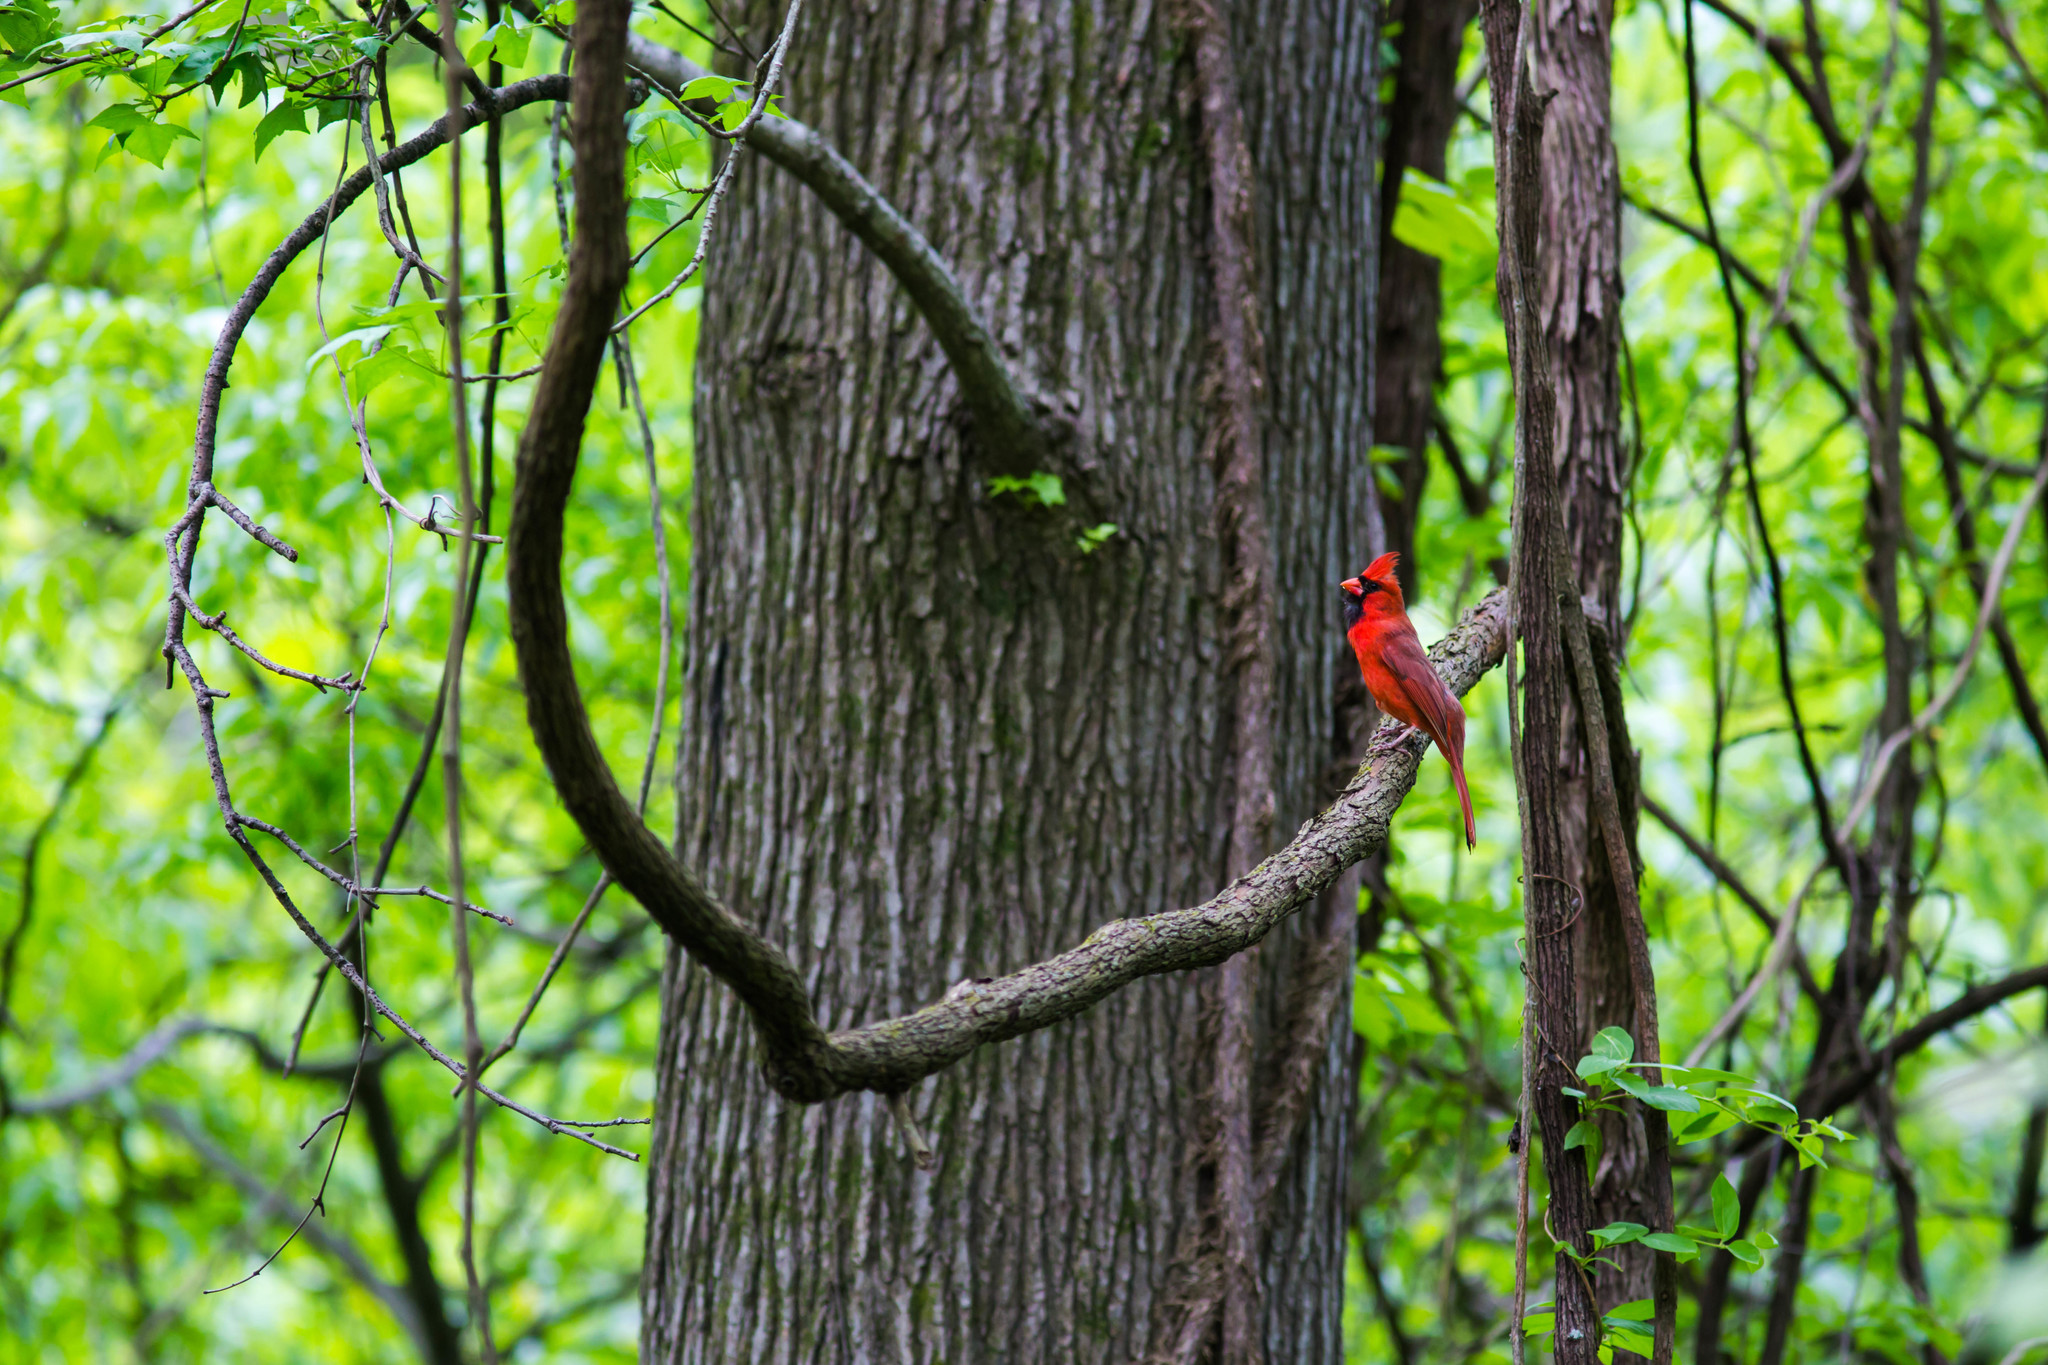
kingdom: Animalia
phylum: Chordata
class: Aves
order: Passeriformes
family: Cardinalidae
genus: Cardinalis
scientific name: Cardinalis cardinalis
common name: Northern cardinal
